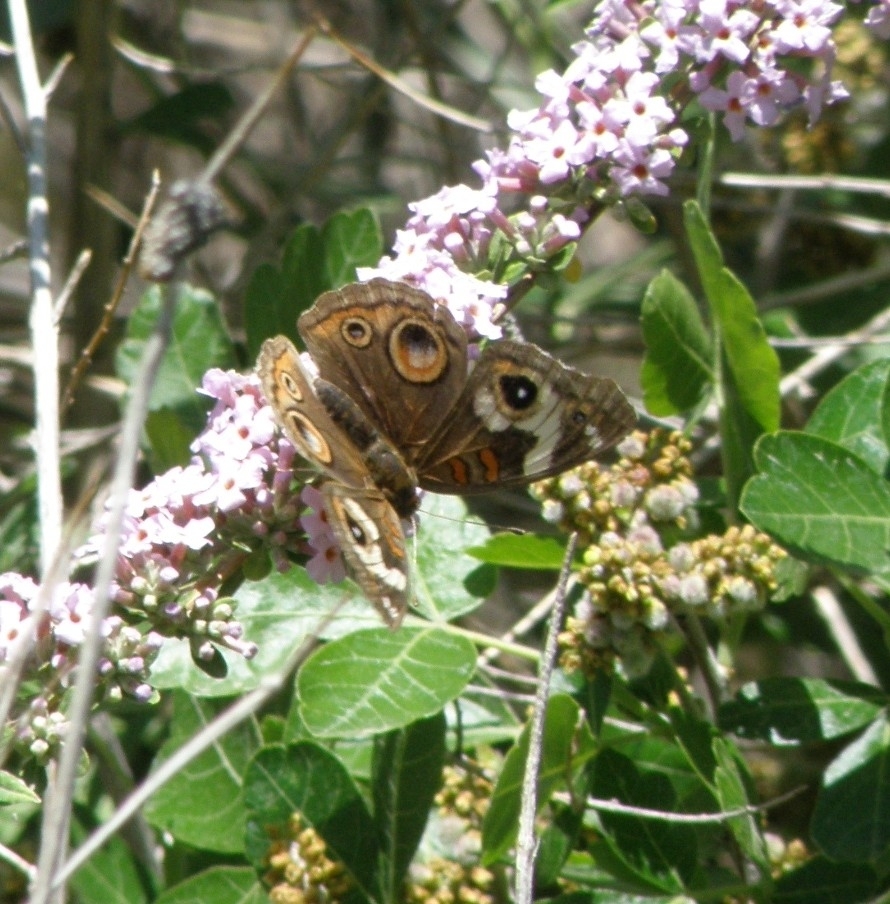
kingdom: Animalia
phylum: Arthropoda
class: Insecta
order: Lepidoptera
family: Nymphalidae
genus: Junonia
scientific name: Junonia grisea
